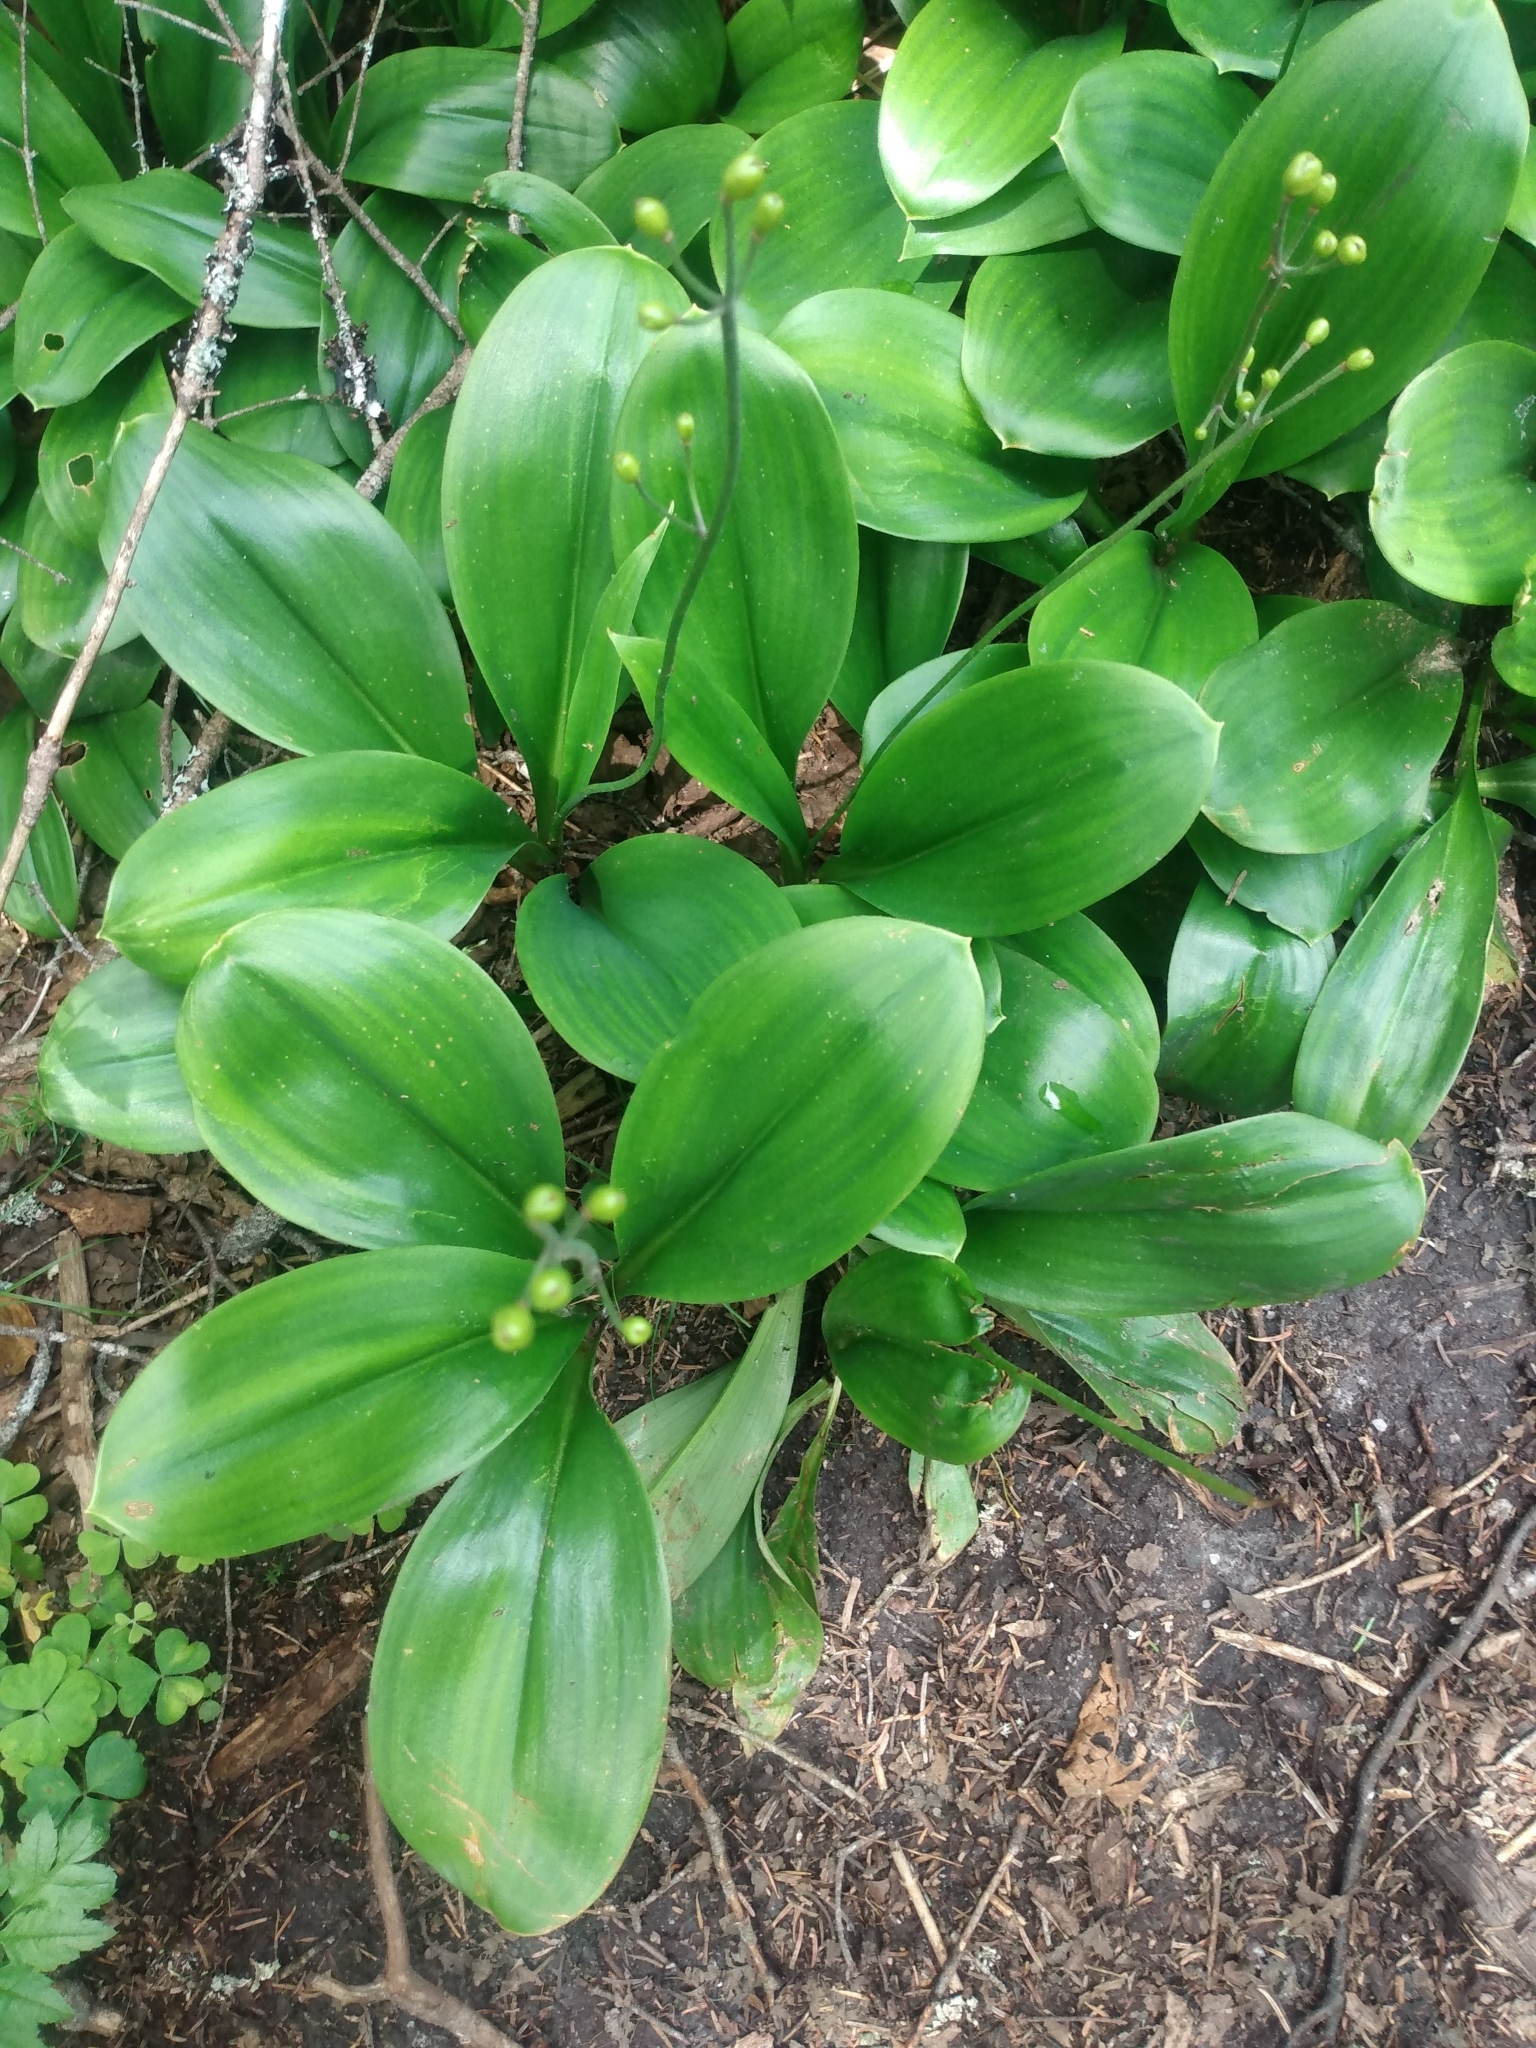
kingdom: Plantae
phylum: Tracheophyta
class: Liliopsida
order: Liliales
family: Liliaceae
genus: Clintonia
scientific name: Clintonia borealis
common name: Yellow clintonia
